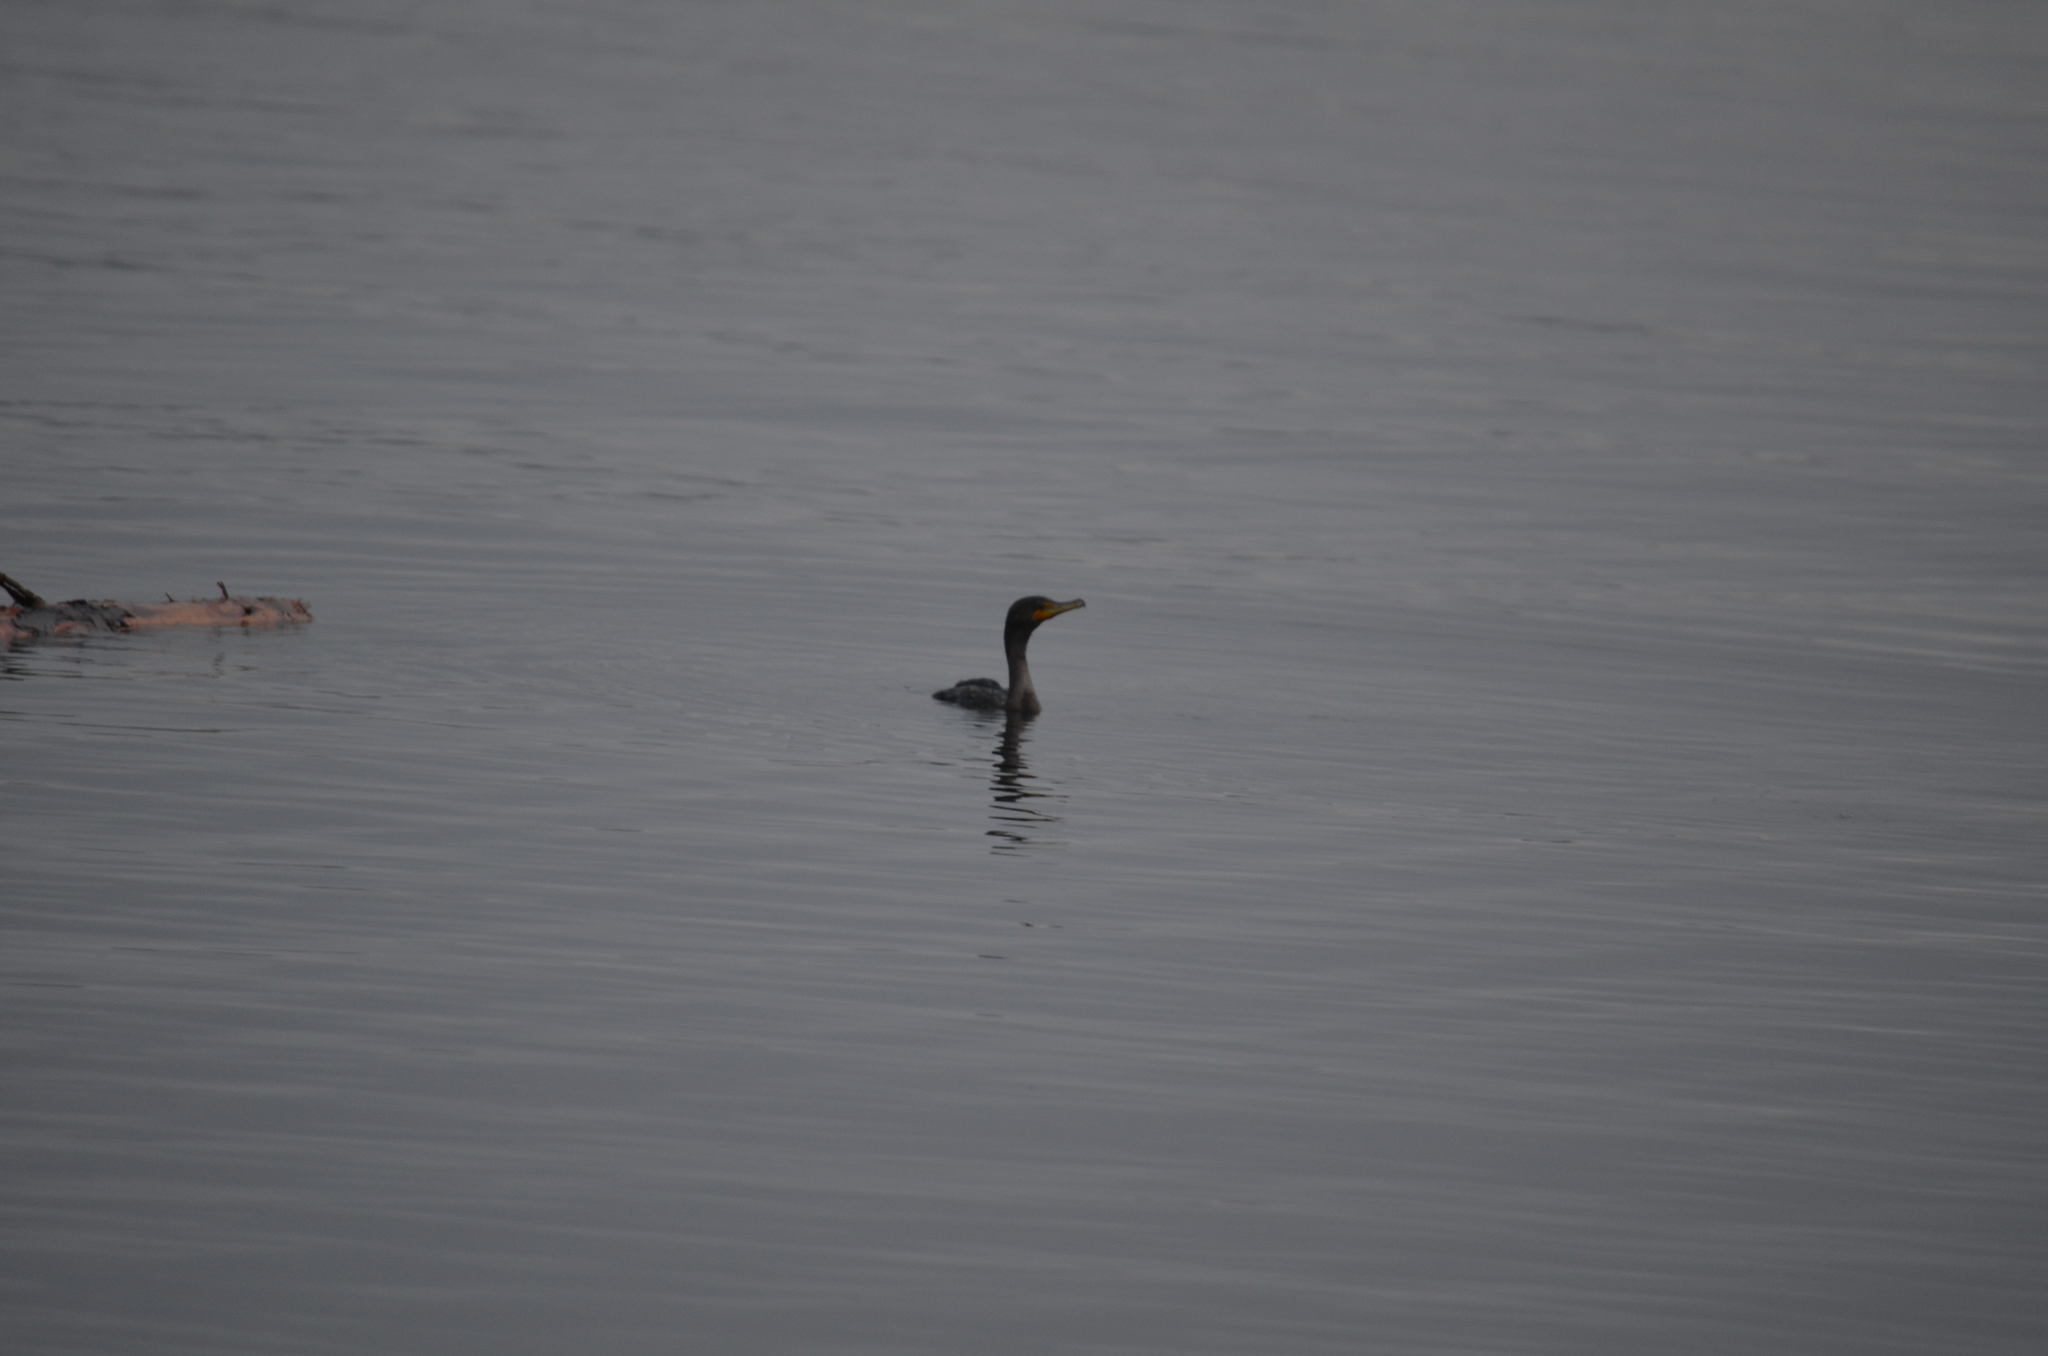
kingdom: Animalia
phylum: Chordata
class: Aves
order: Suliformes
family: Phalacrocoracidae
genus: Phalacrocorax
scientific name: Phalacrocorax auritus
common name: Double-crested cormorant
